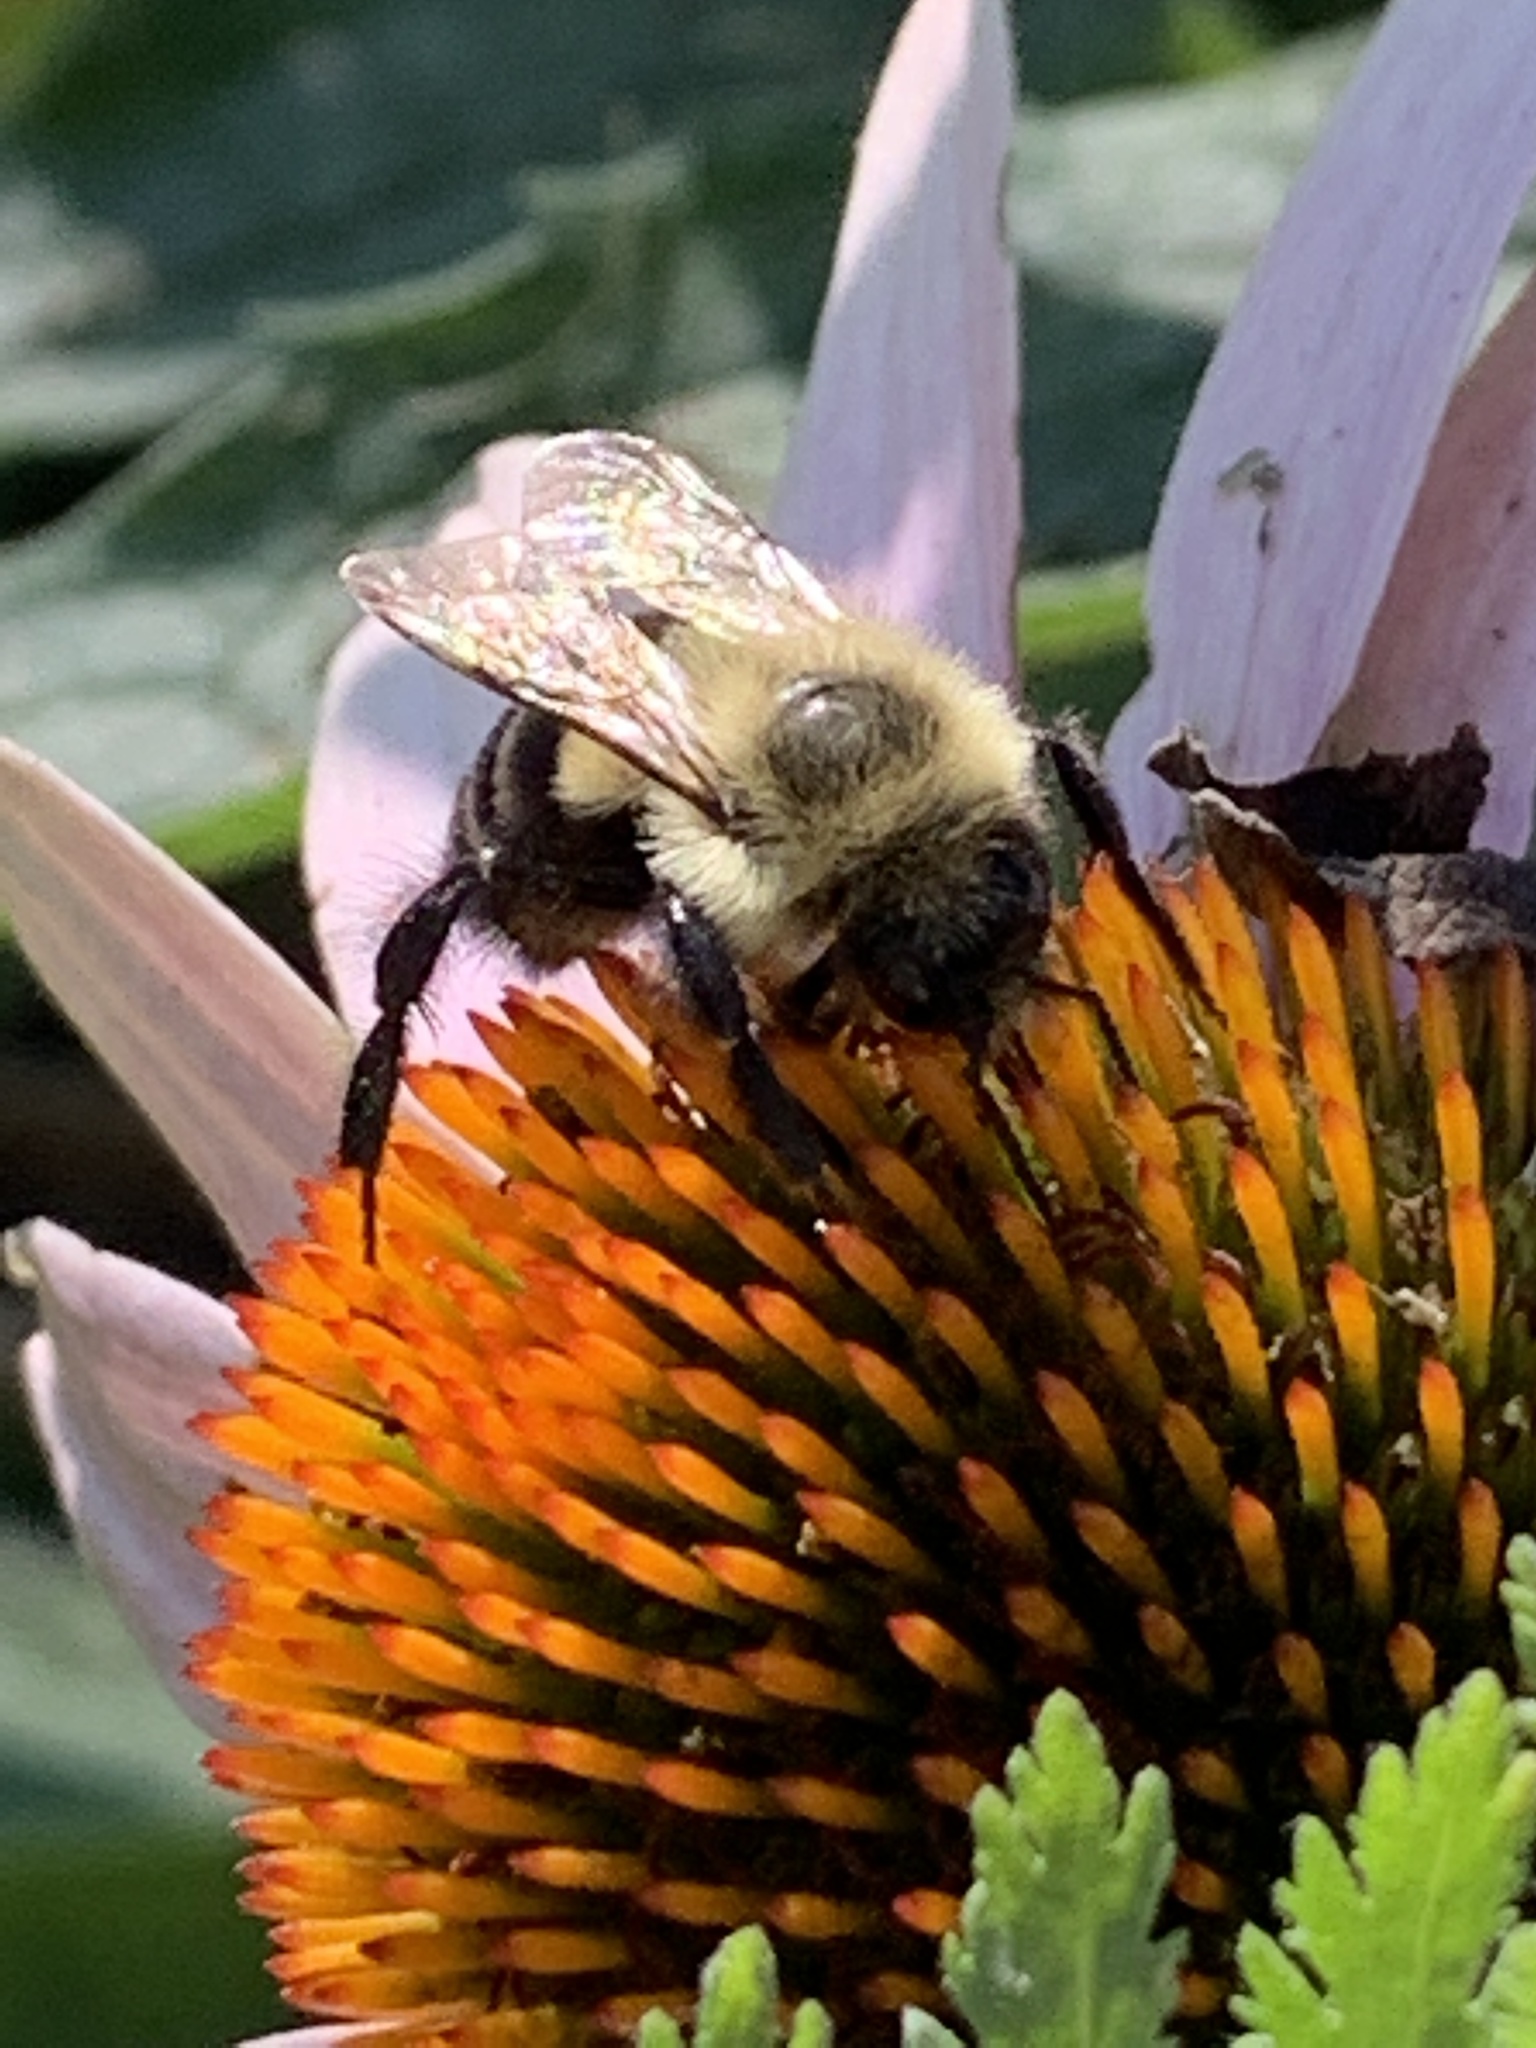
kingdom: Animalia
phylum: Arthropoda
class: Insecta
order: Hymenoptera
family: Apidae
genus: Bombus
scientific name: Bombus impatiens
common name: Common eastern bumble bee
